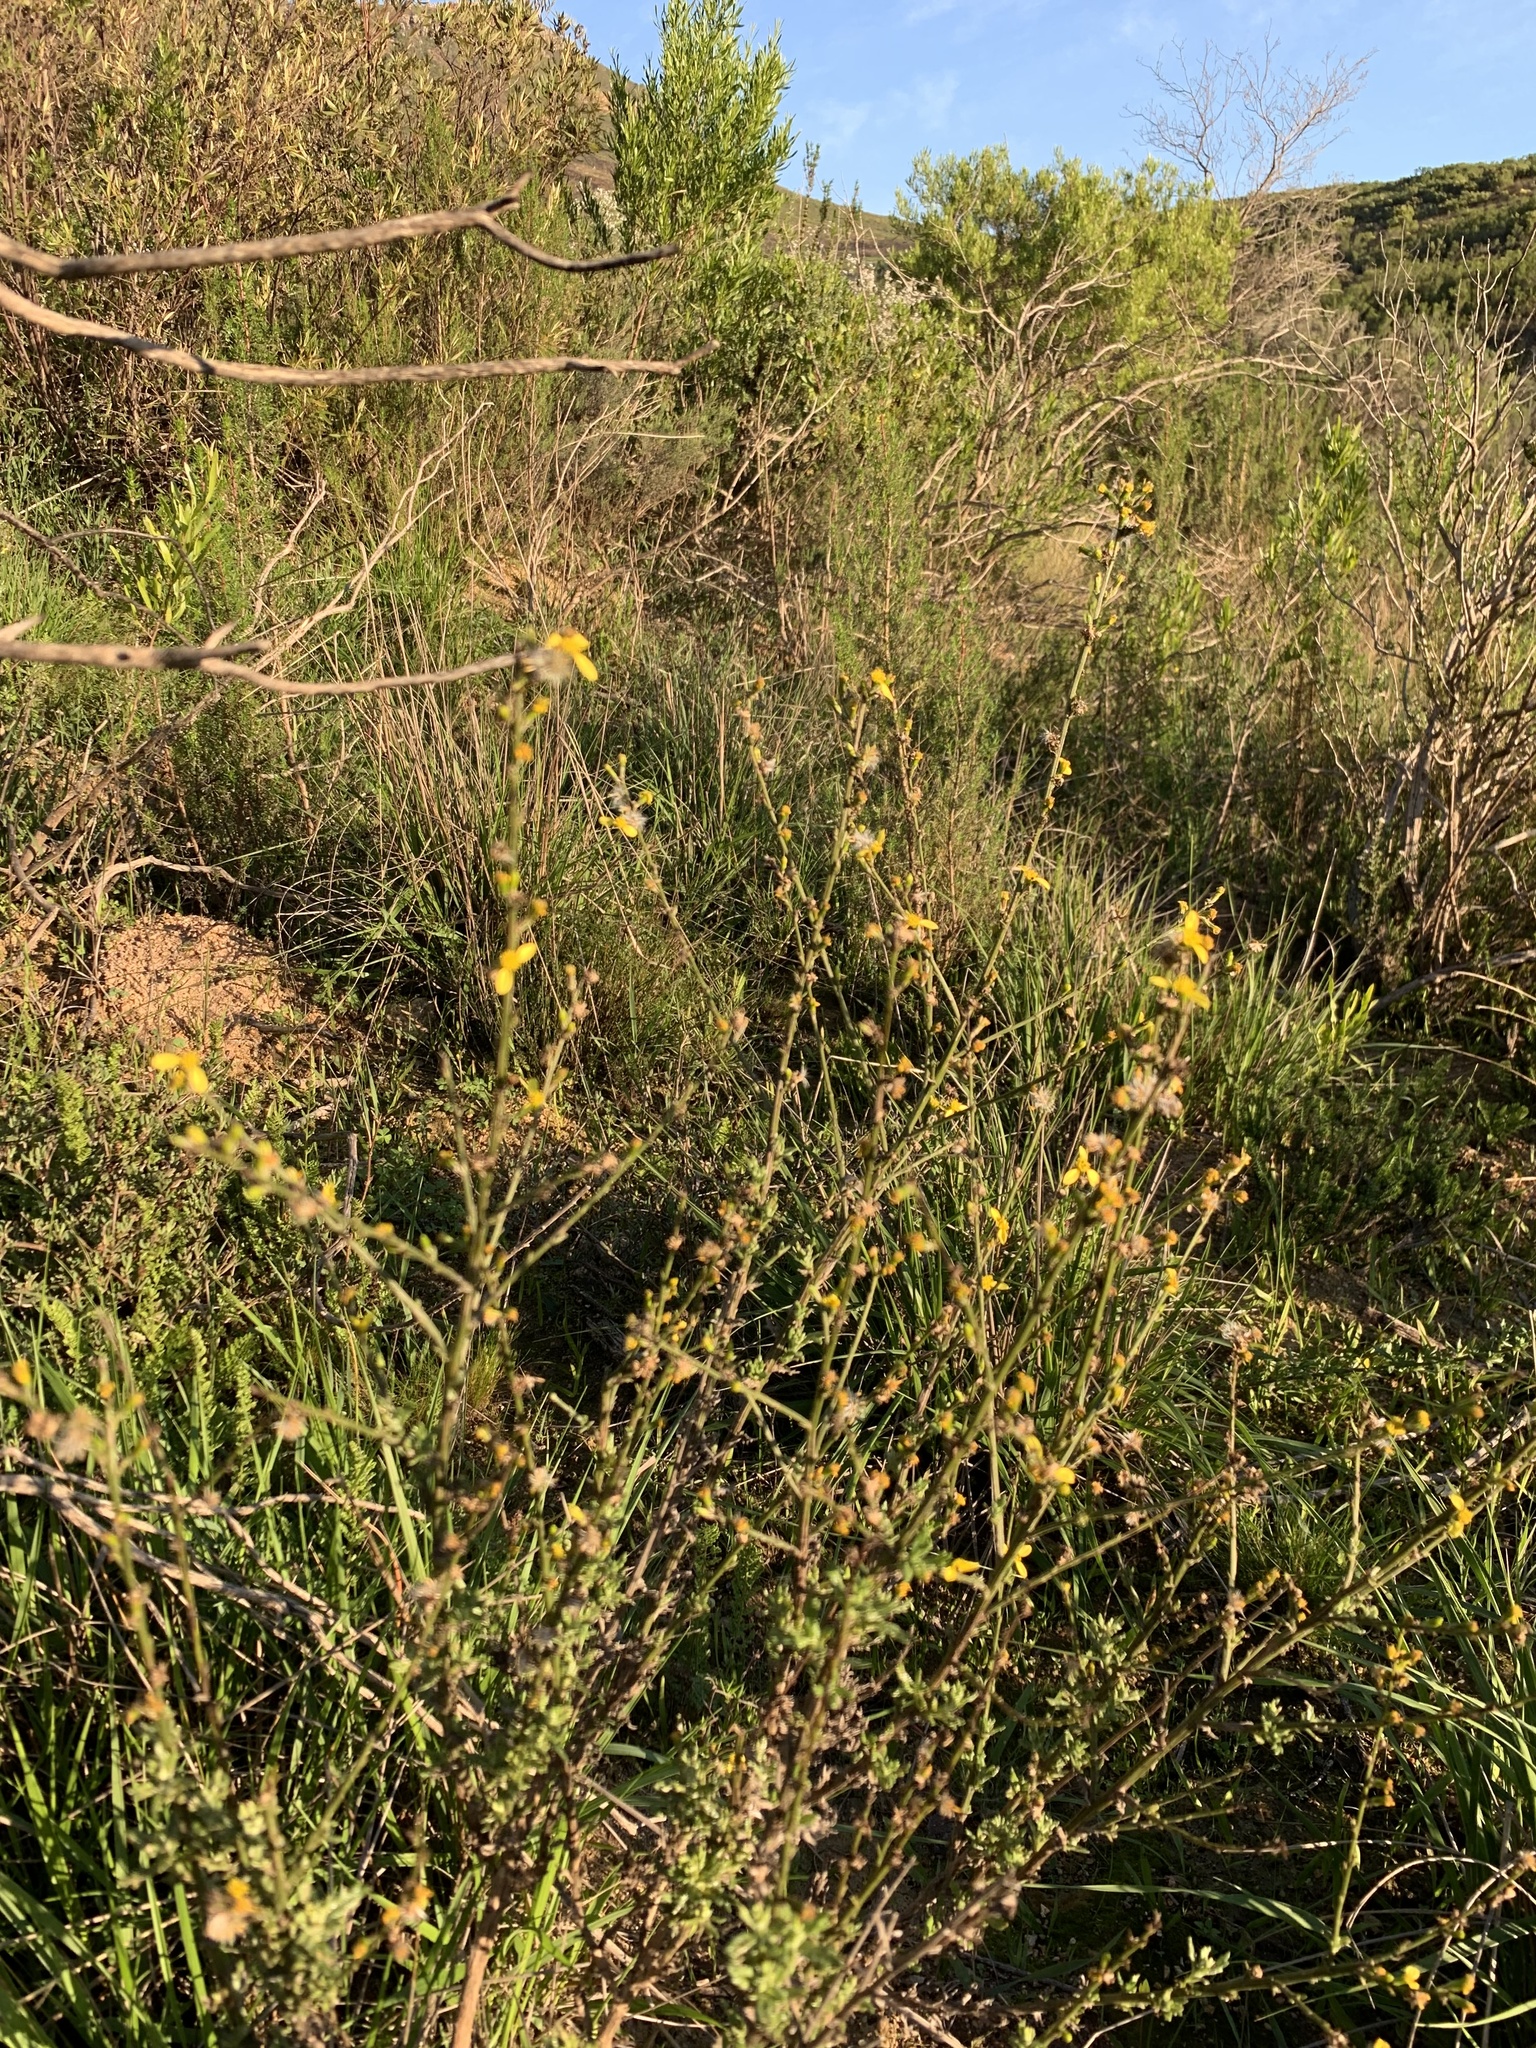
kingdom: Plantae
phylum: Tracheophyta
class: Magnoliopsida
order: Asterales
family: Asteraceae
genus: Senecio
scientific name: Senecio pubigerus
